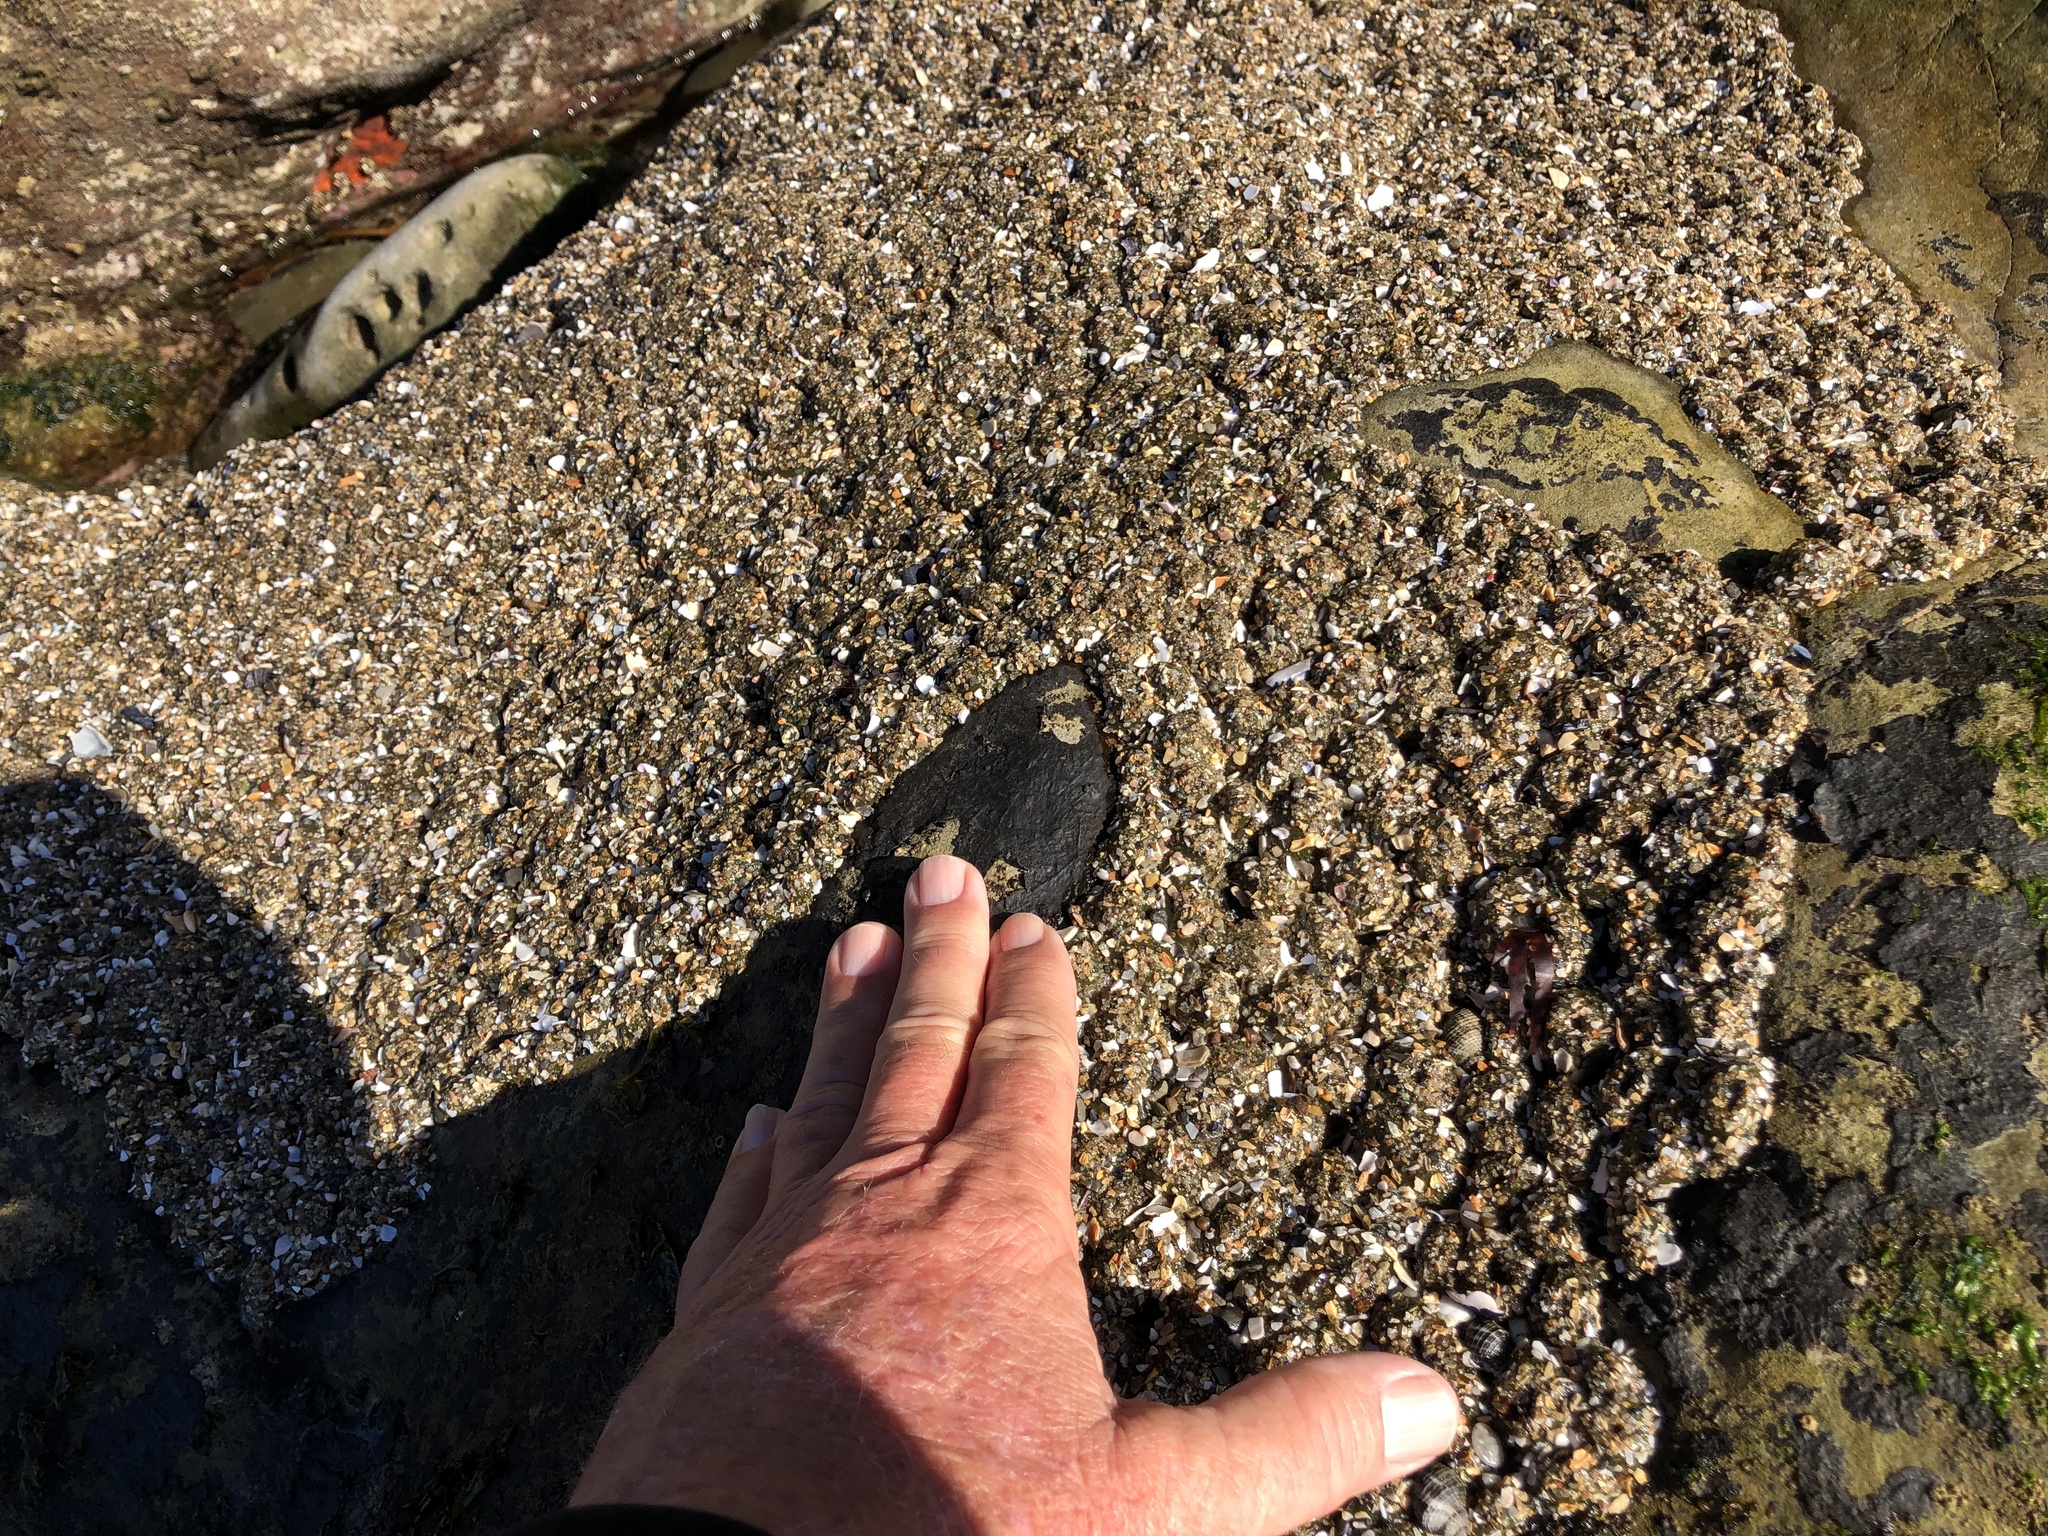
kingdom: Animalia
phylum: Cnidaria
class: Anthozoa
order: Actiniaria
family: Actiniidae
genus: Anthopleura
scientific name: Anthopleura elegantissima
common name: Clonal anemone
